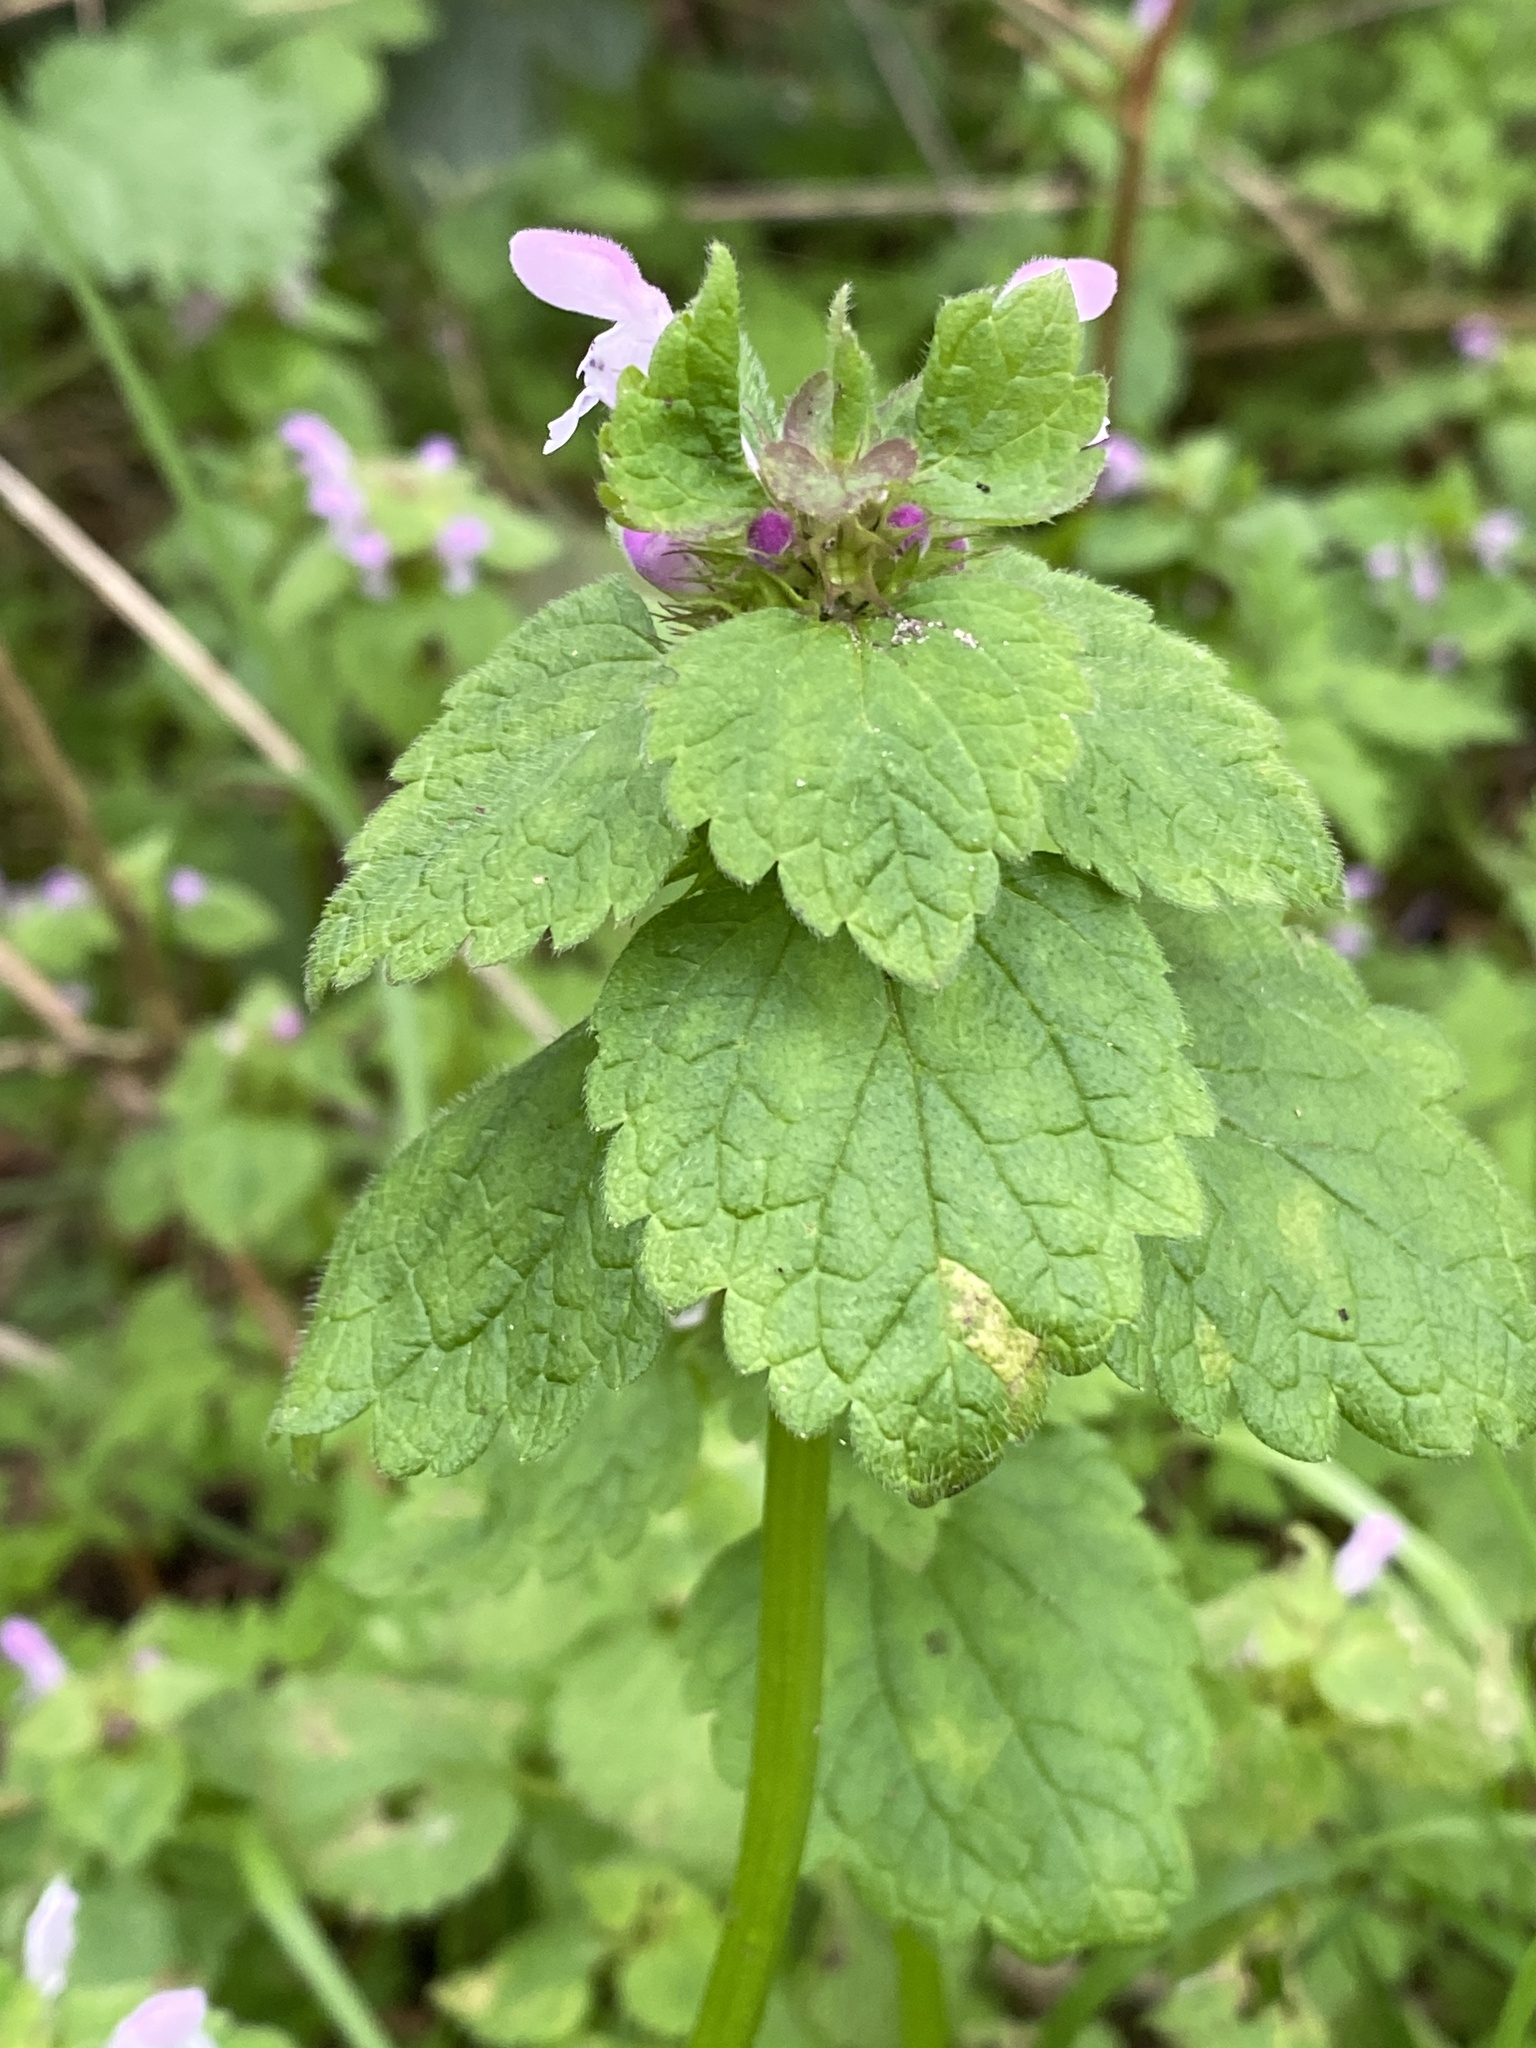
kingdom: Plantae
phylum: Tracheophyta
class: Magnoliopsida
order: Lamiales
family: Lamiaceae
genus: Lamium
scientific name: Lamium purpureum
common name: Red dead-nettle
